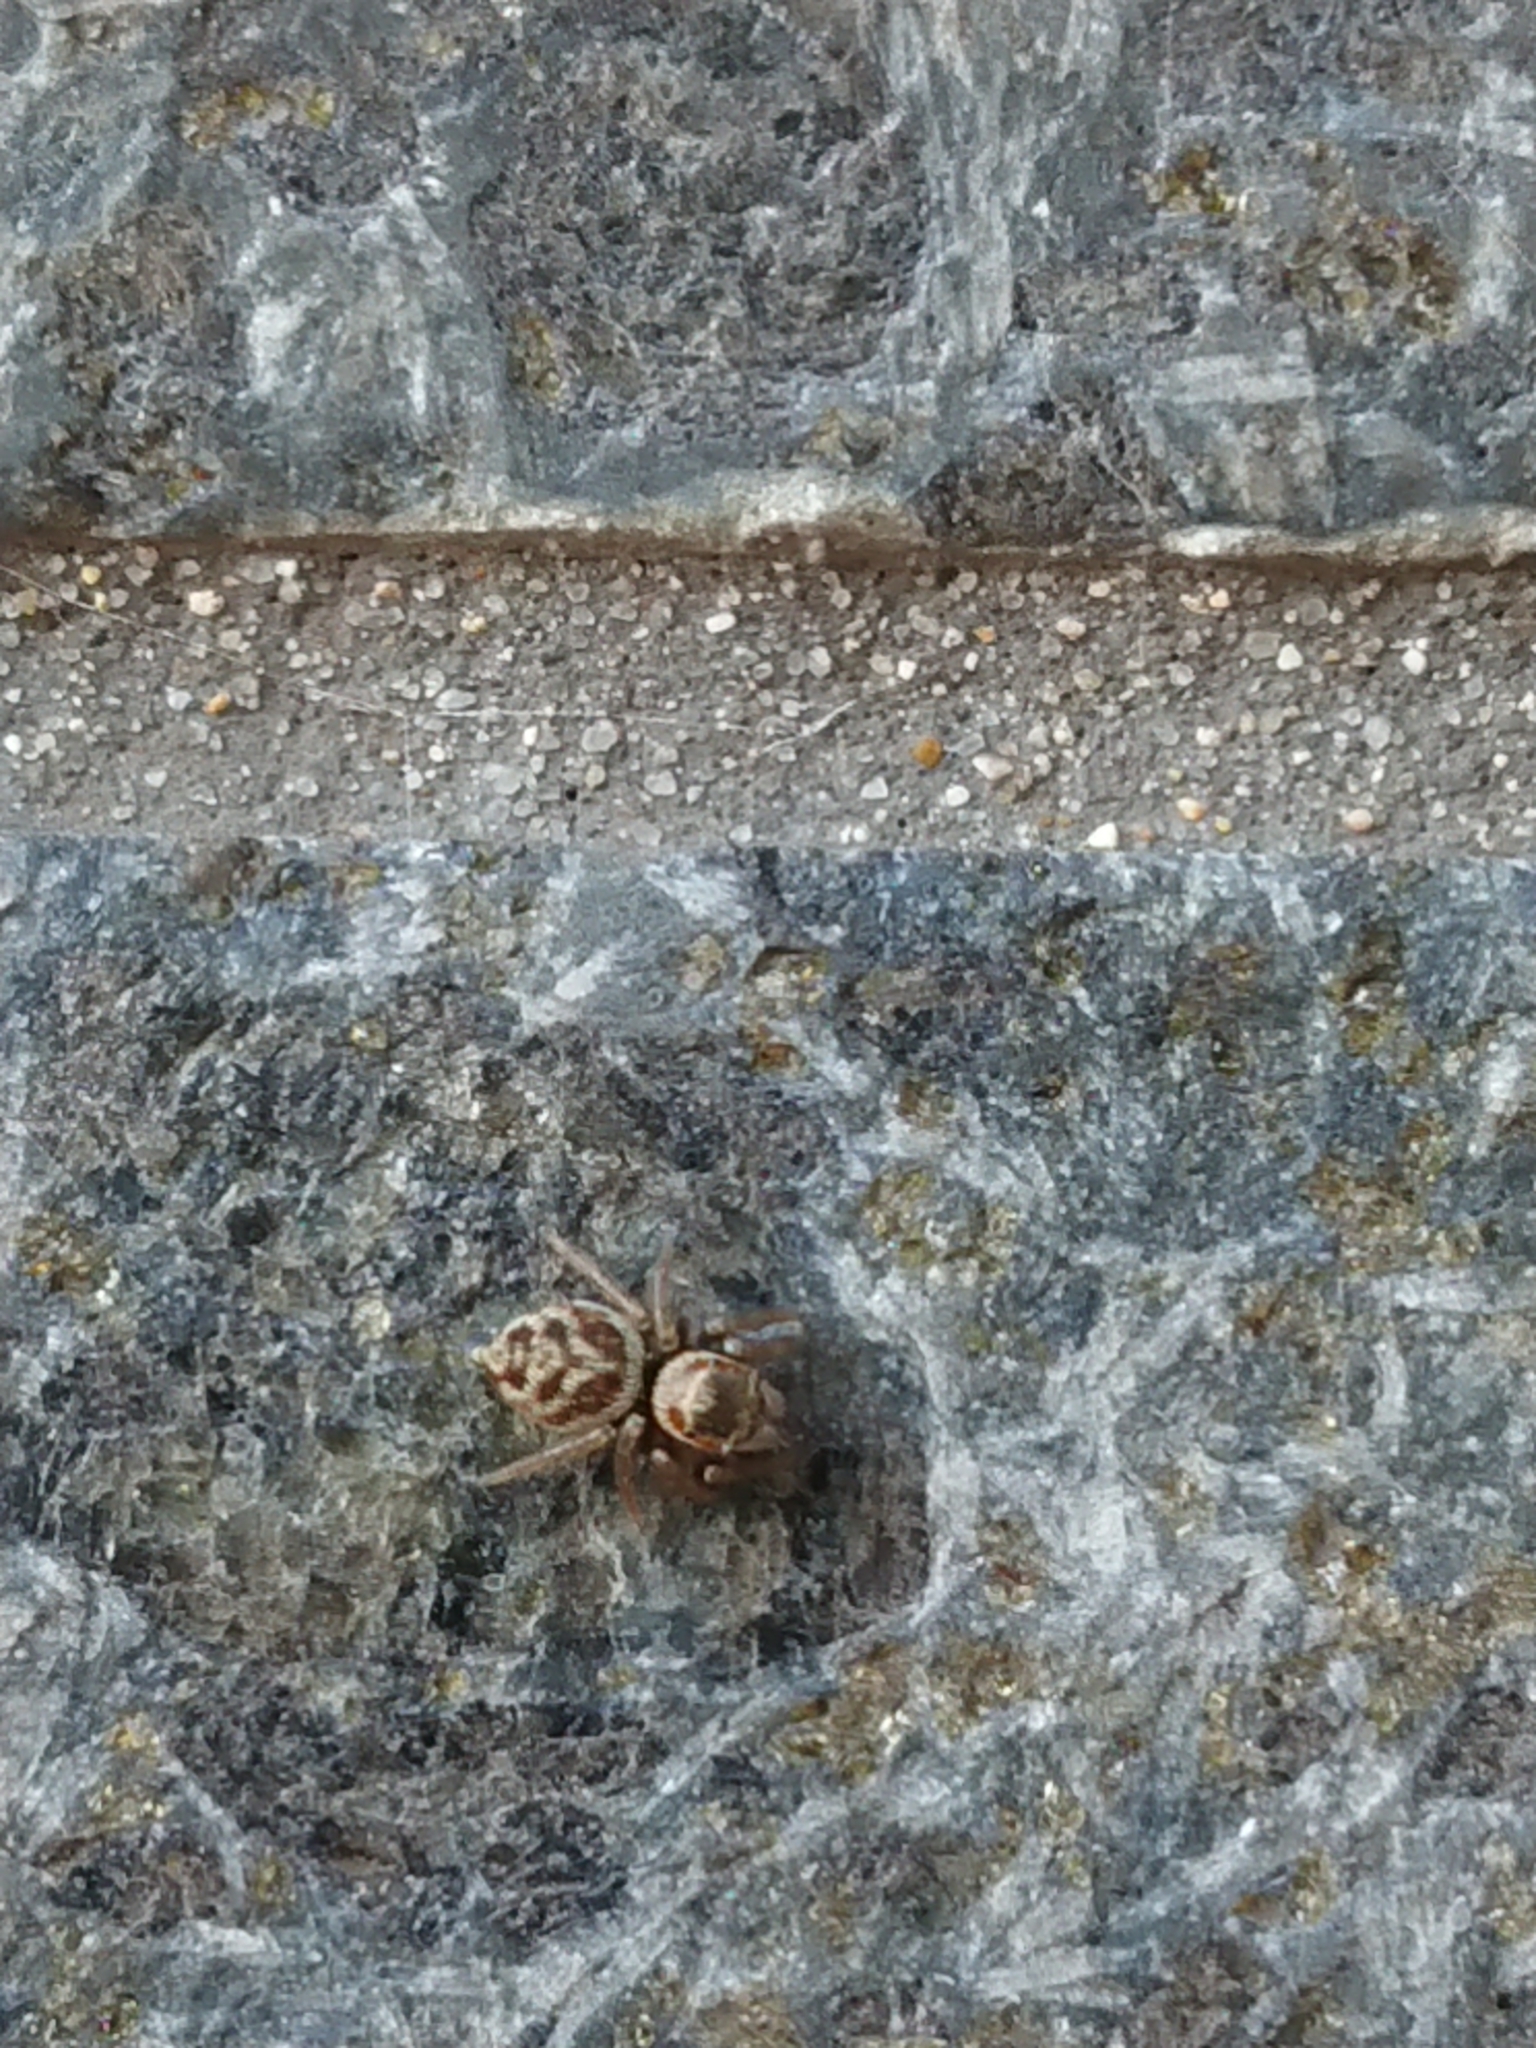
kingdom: Animalia
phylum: Arthropoda
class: Arachnida
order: Araneae
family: Salticidae
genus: Maratus
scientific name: Maratus griseus
